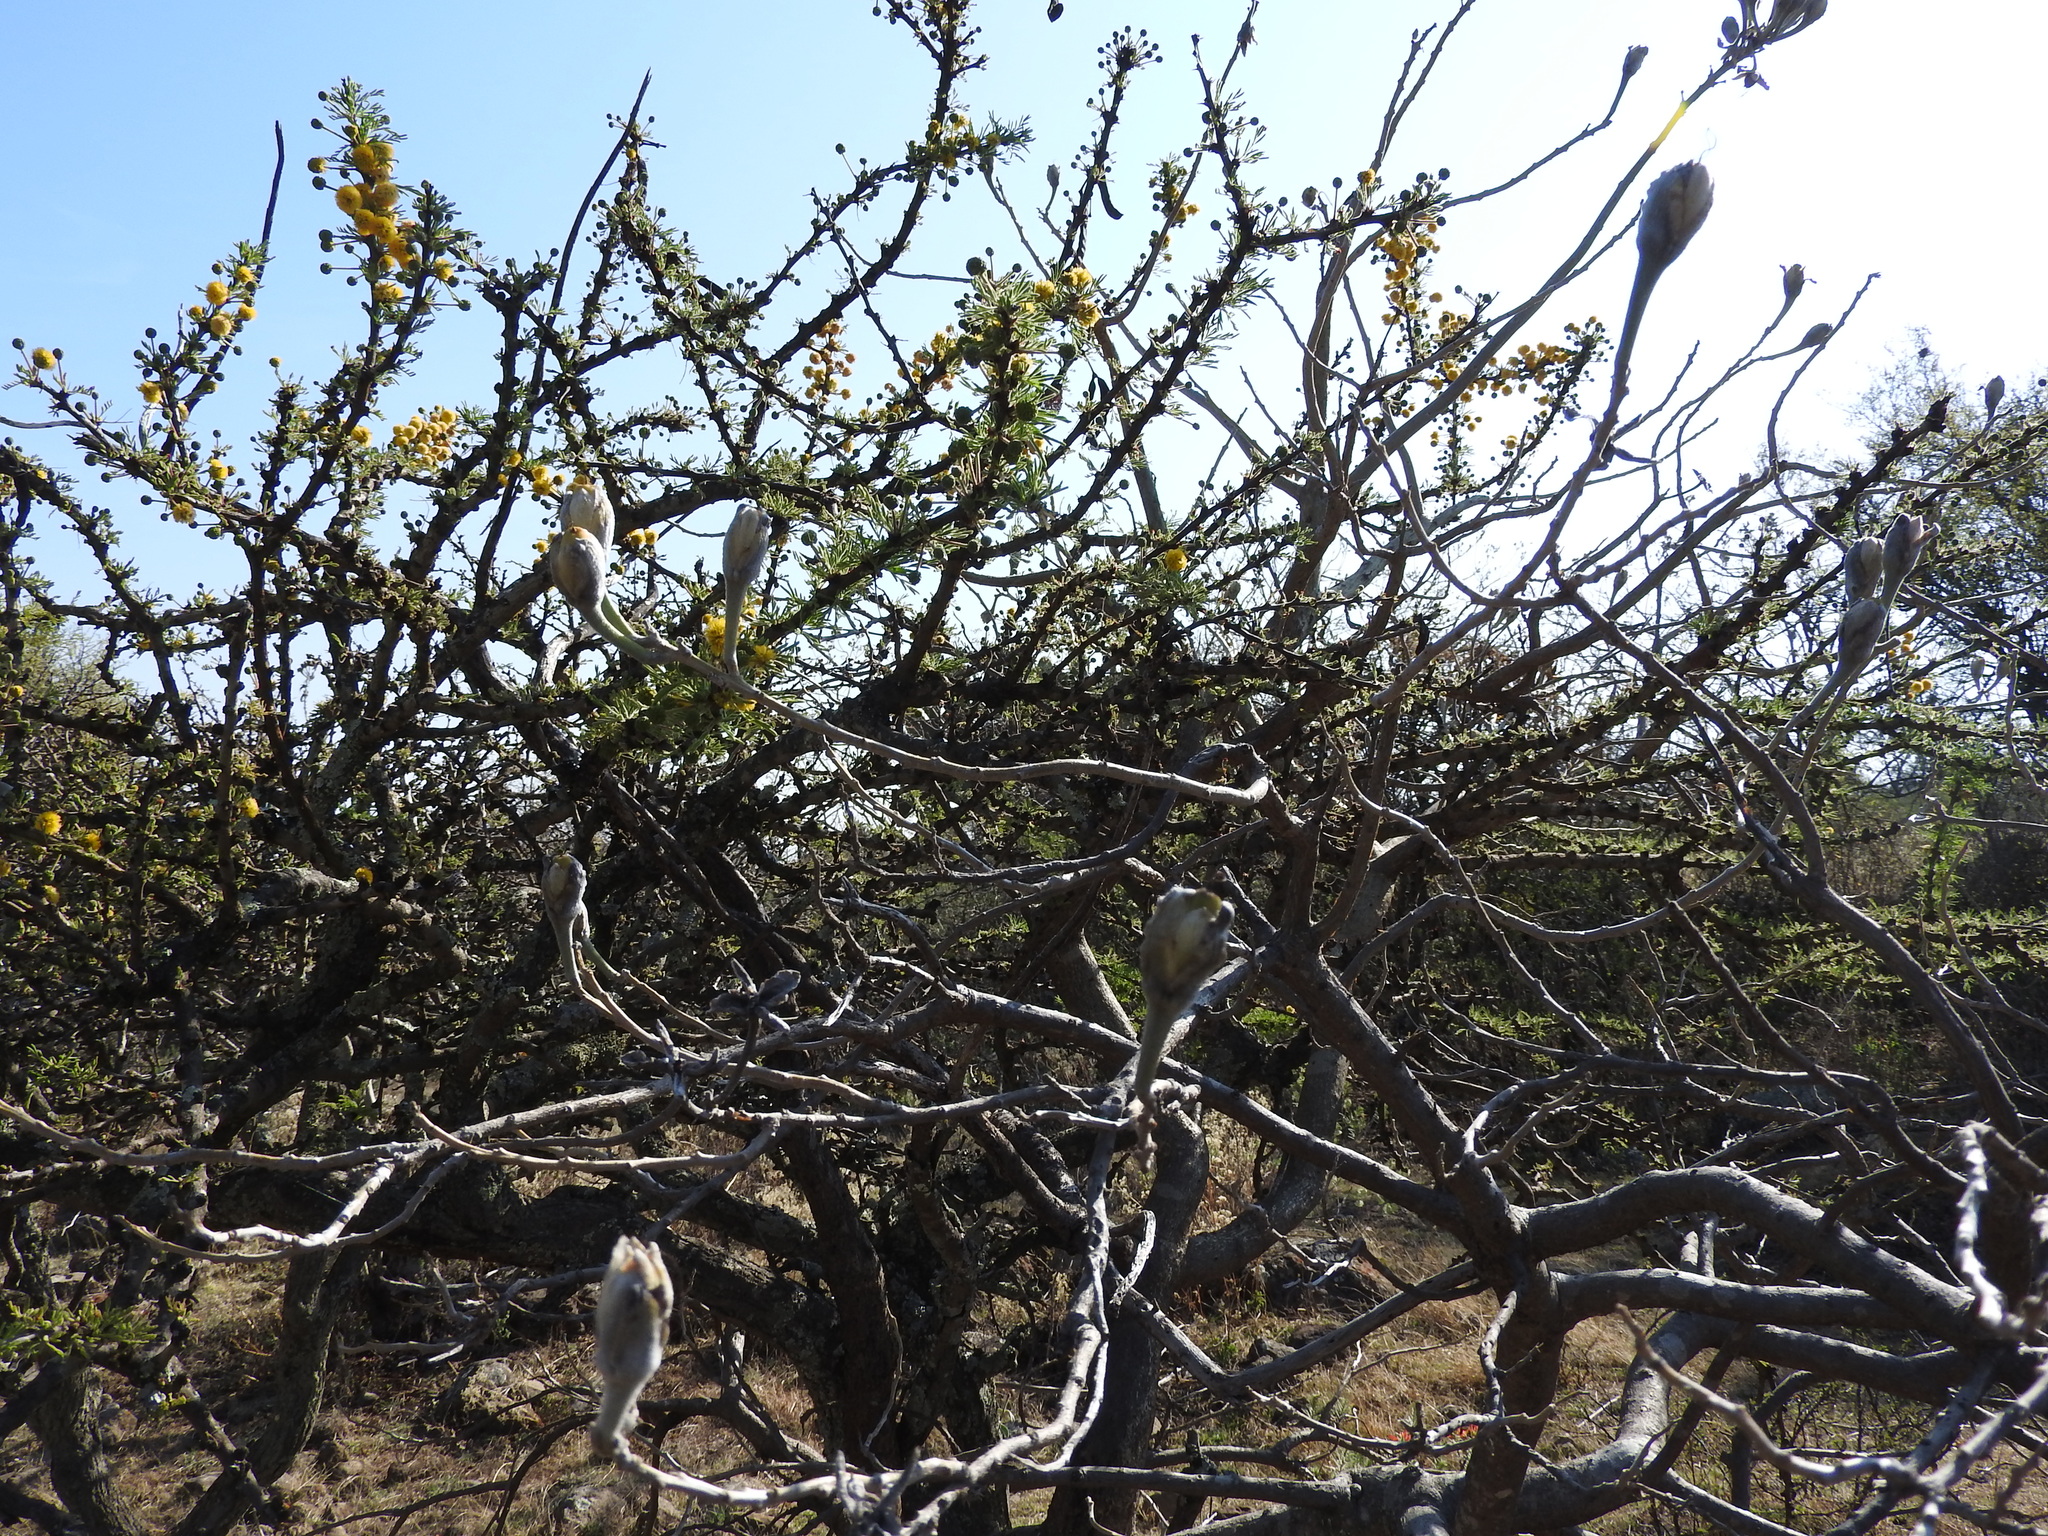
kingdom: Plantae
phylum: Tracheophyta
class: Magnoliopsida
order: Solanales
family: Convolvulaceae
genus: Ipomoea
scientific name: Ipomoea murucoides
